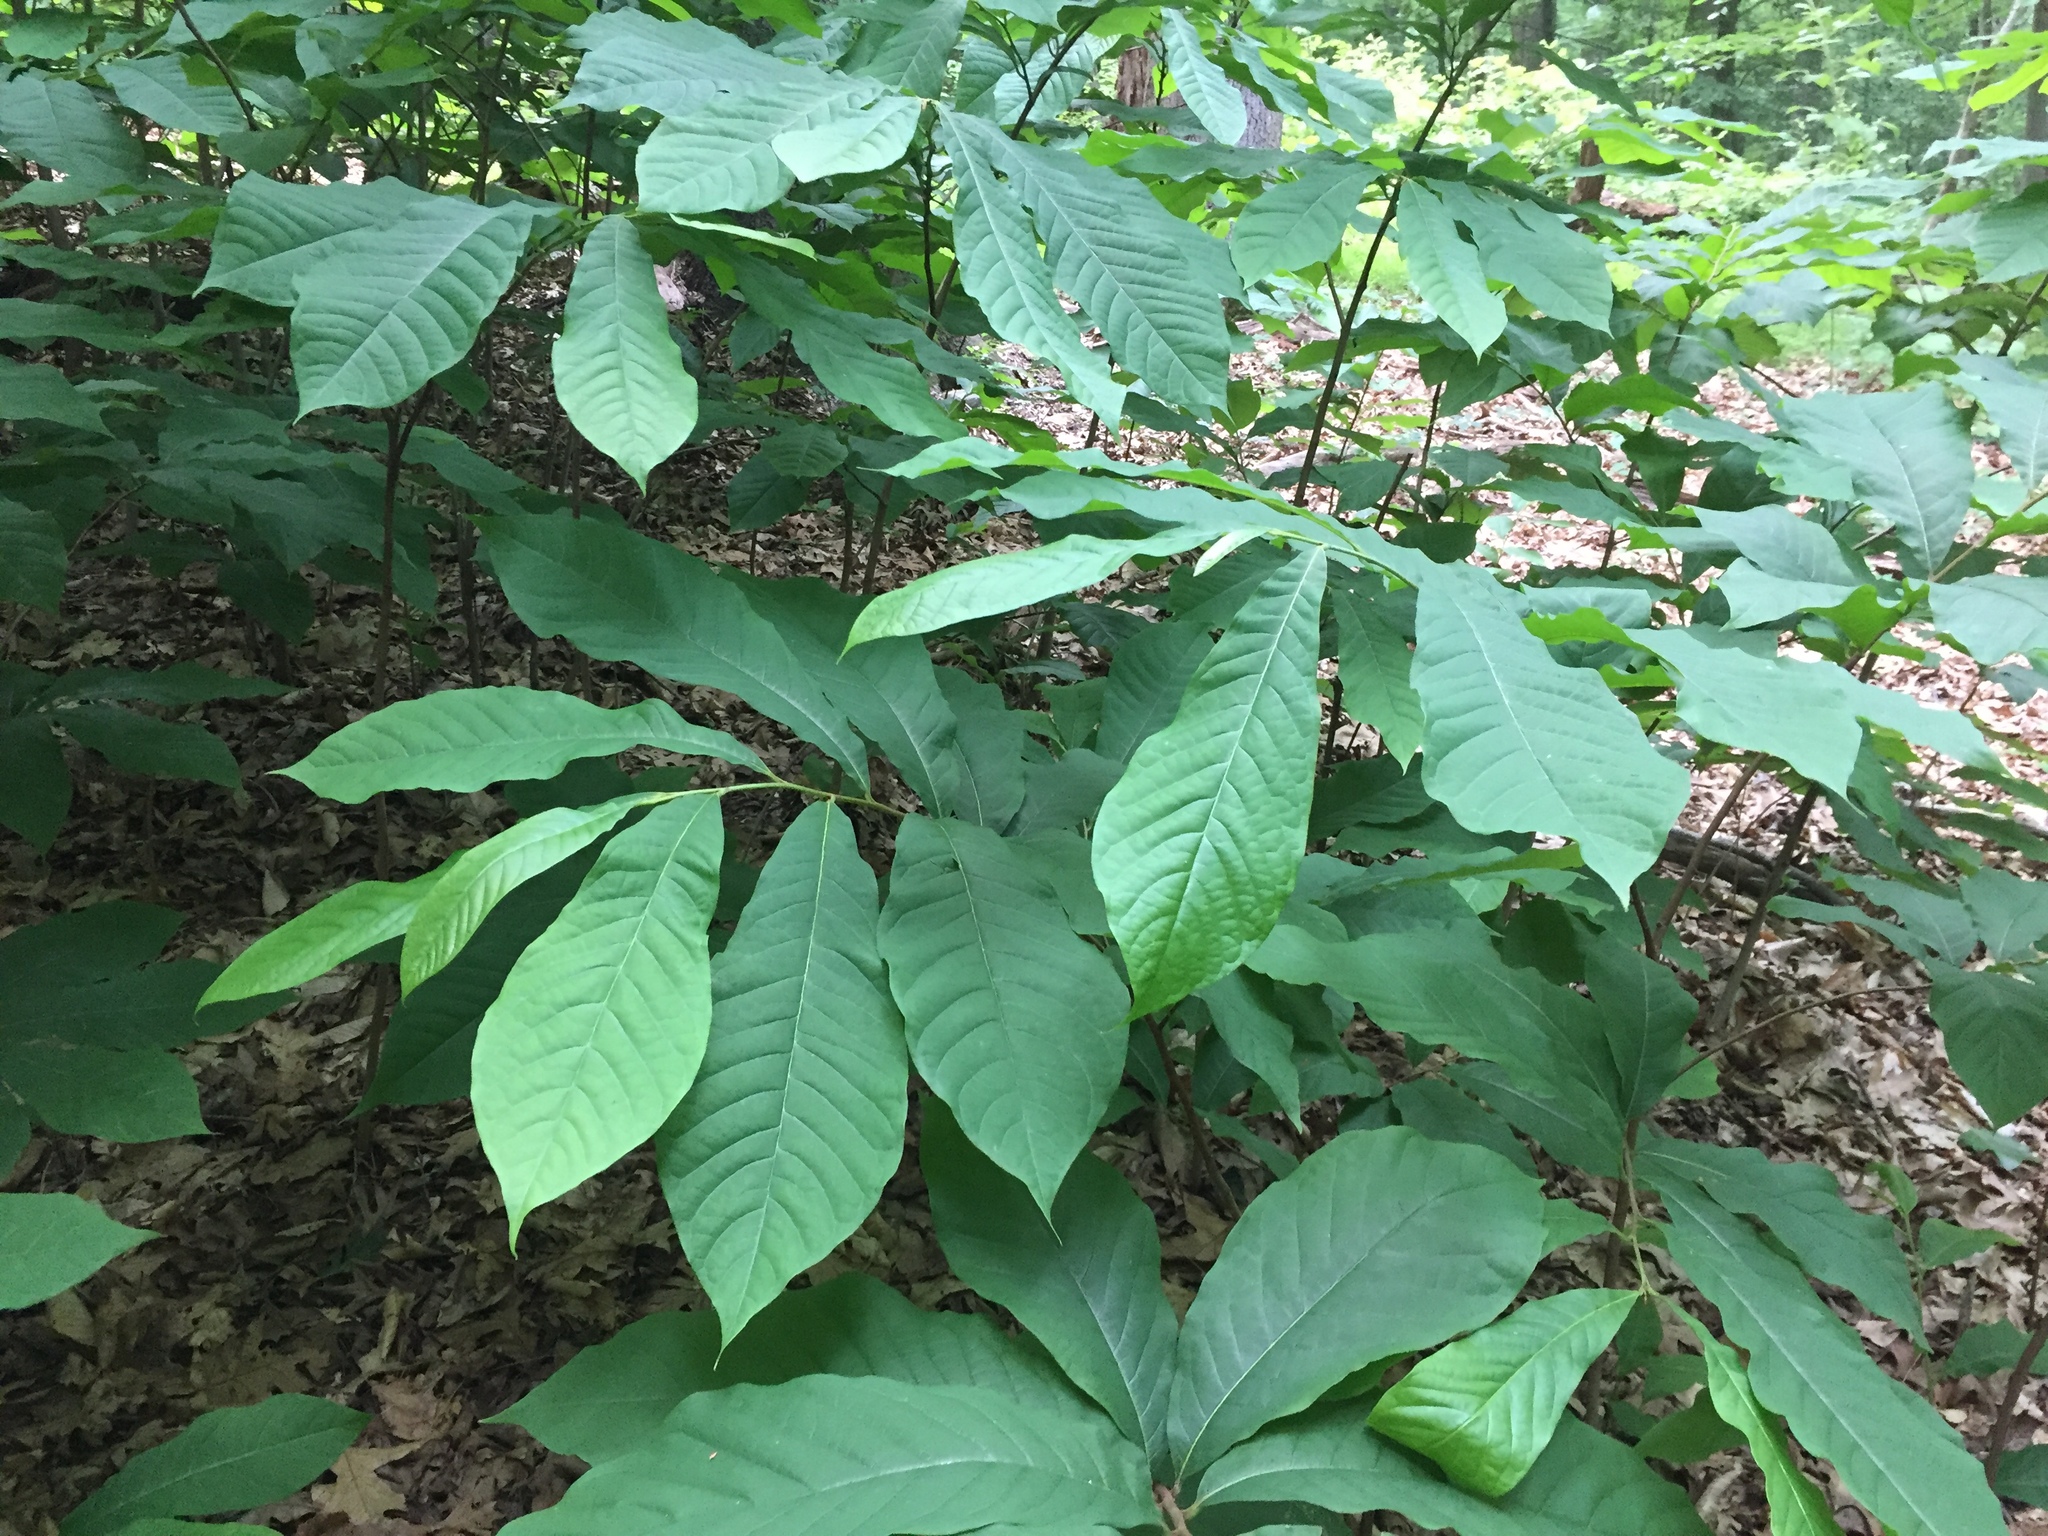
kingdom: Plantae
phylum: Tracheophyta
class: Magnoliopsida
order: Magnoliales
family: Annonaceae
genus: Asimina
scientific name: Asimina triloba
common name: Dog-banana
